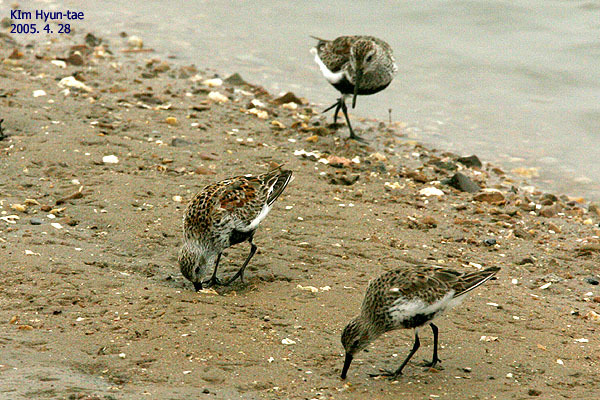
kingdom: Animalia
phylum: Chordata
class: Aves
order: Charadriiformes
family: Scolopacidae
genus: Calidris
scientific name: Calidris alpina
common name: Dunlin
